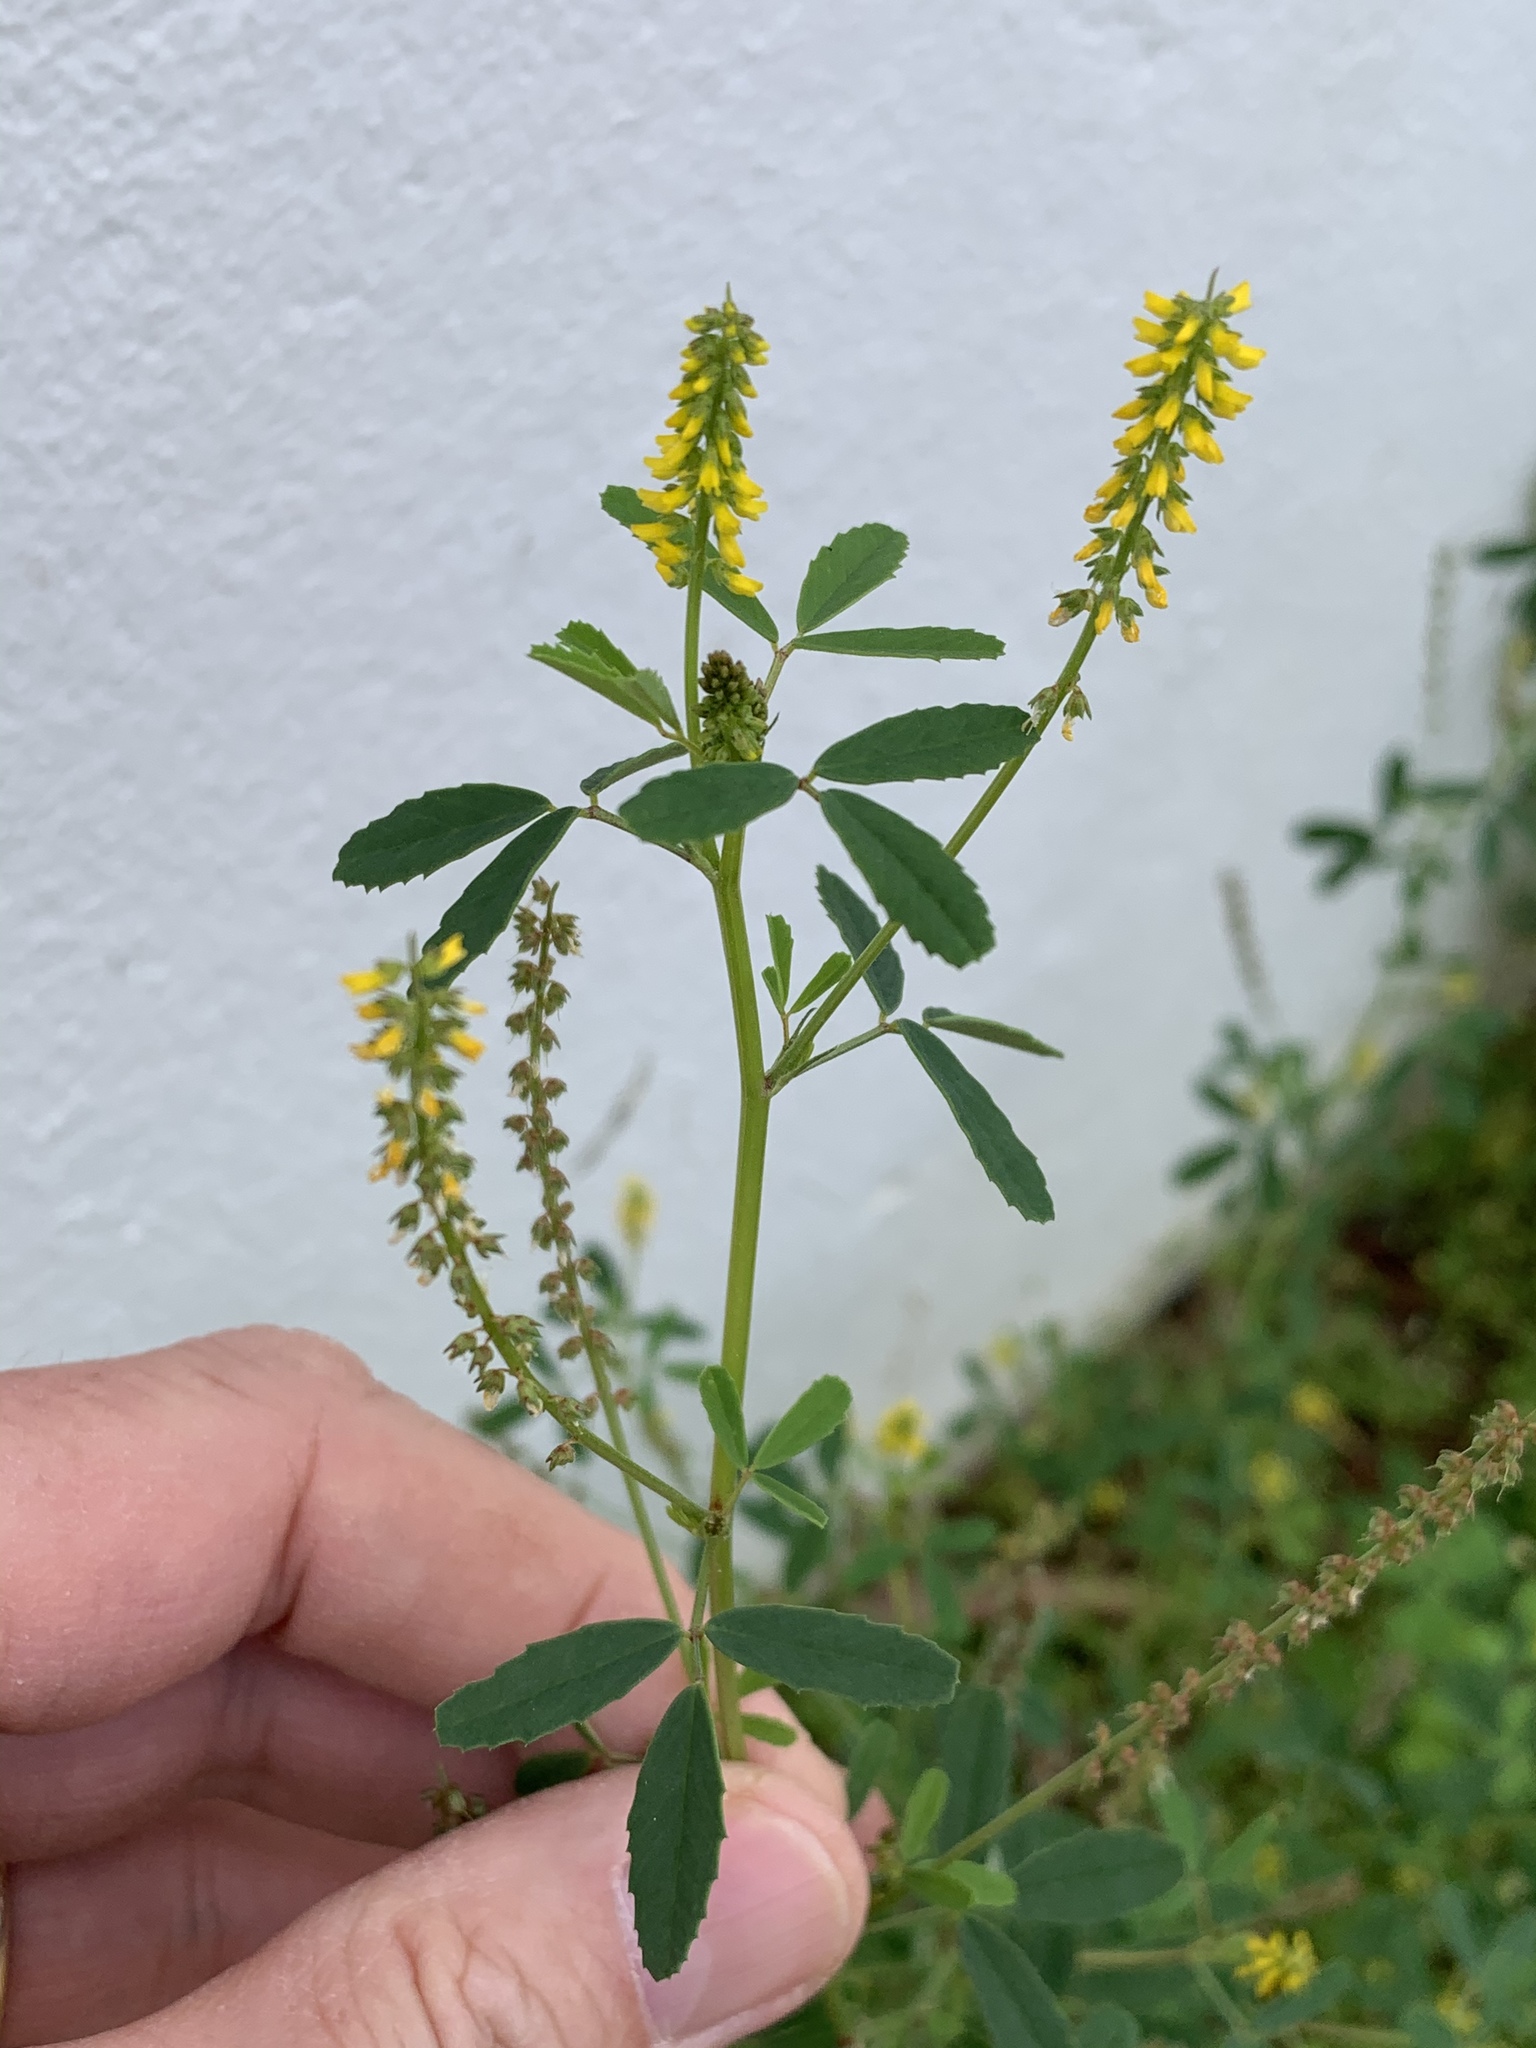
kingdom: Plantae
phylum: Tracheophyta
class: Magnoliopsida
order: Fabales
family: Fabaceae
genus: Melilotus
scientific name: Melilotus indicus
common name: Small melilot
